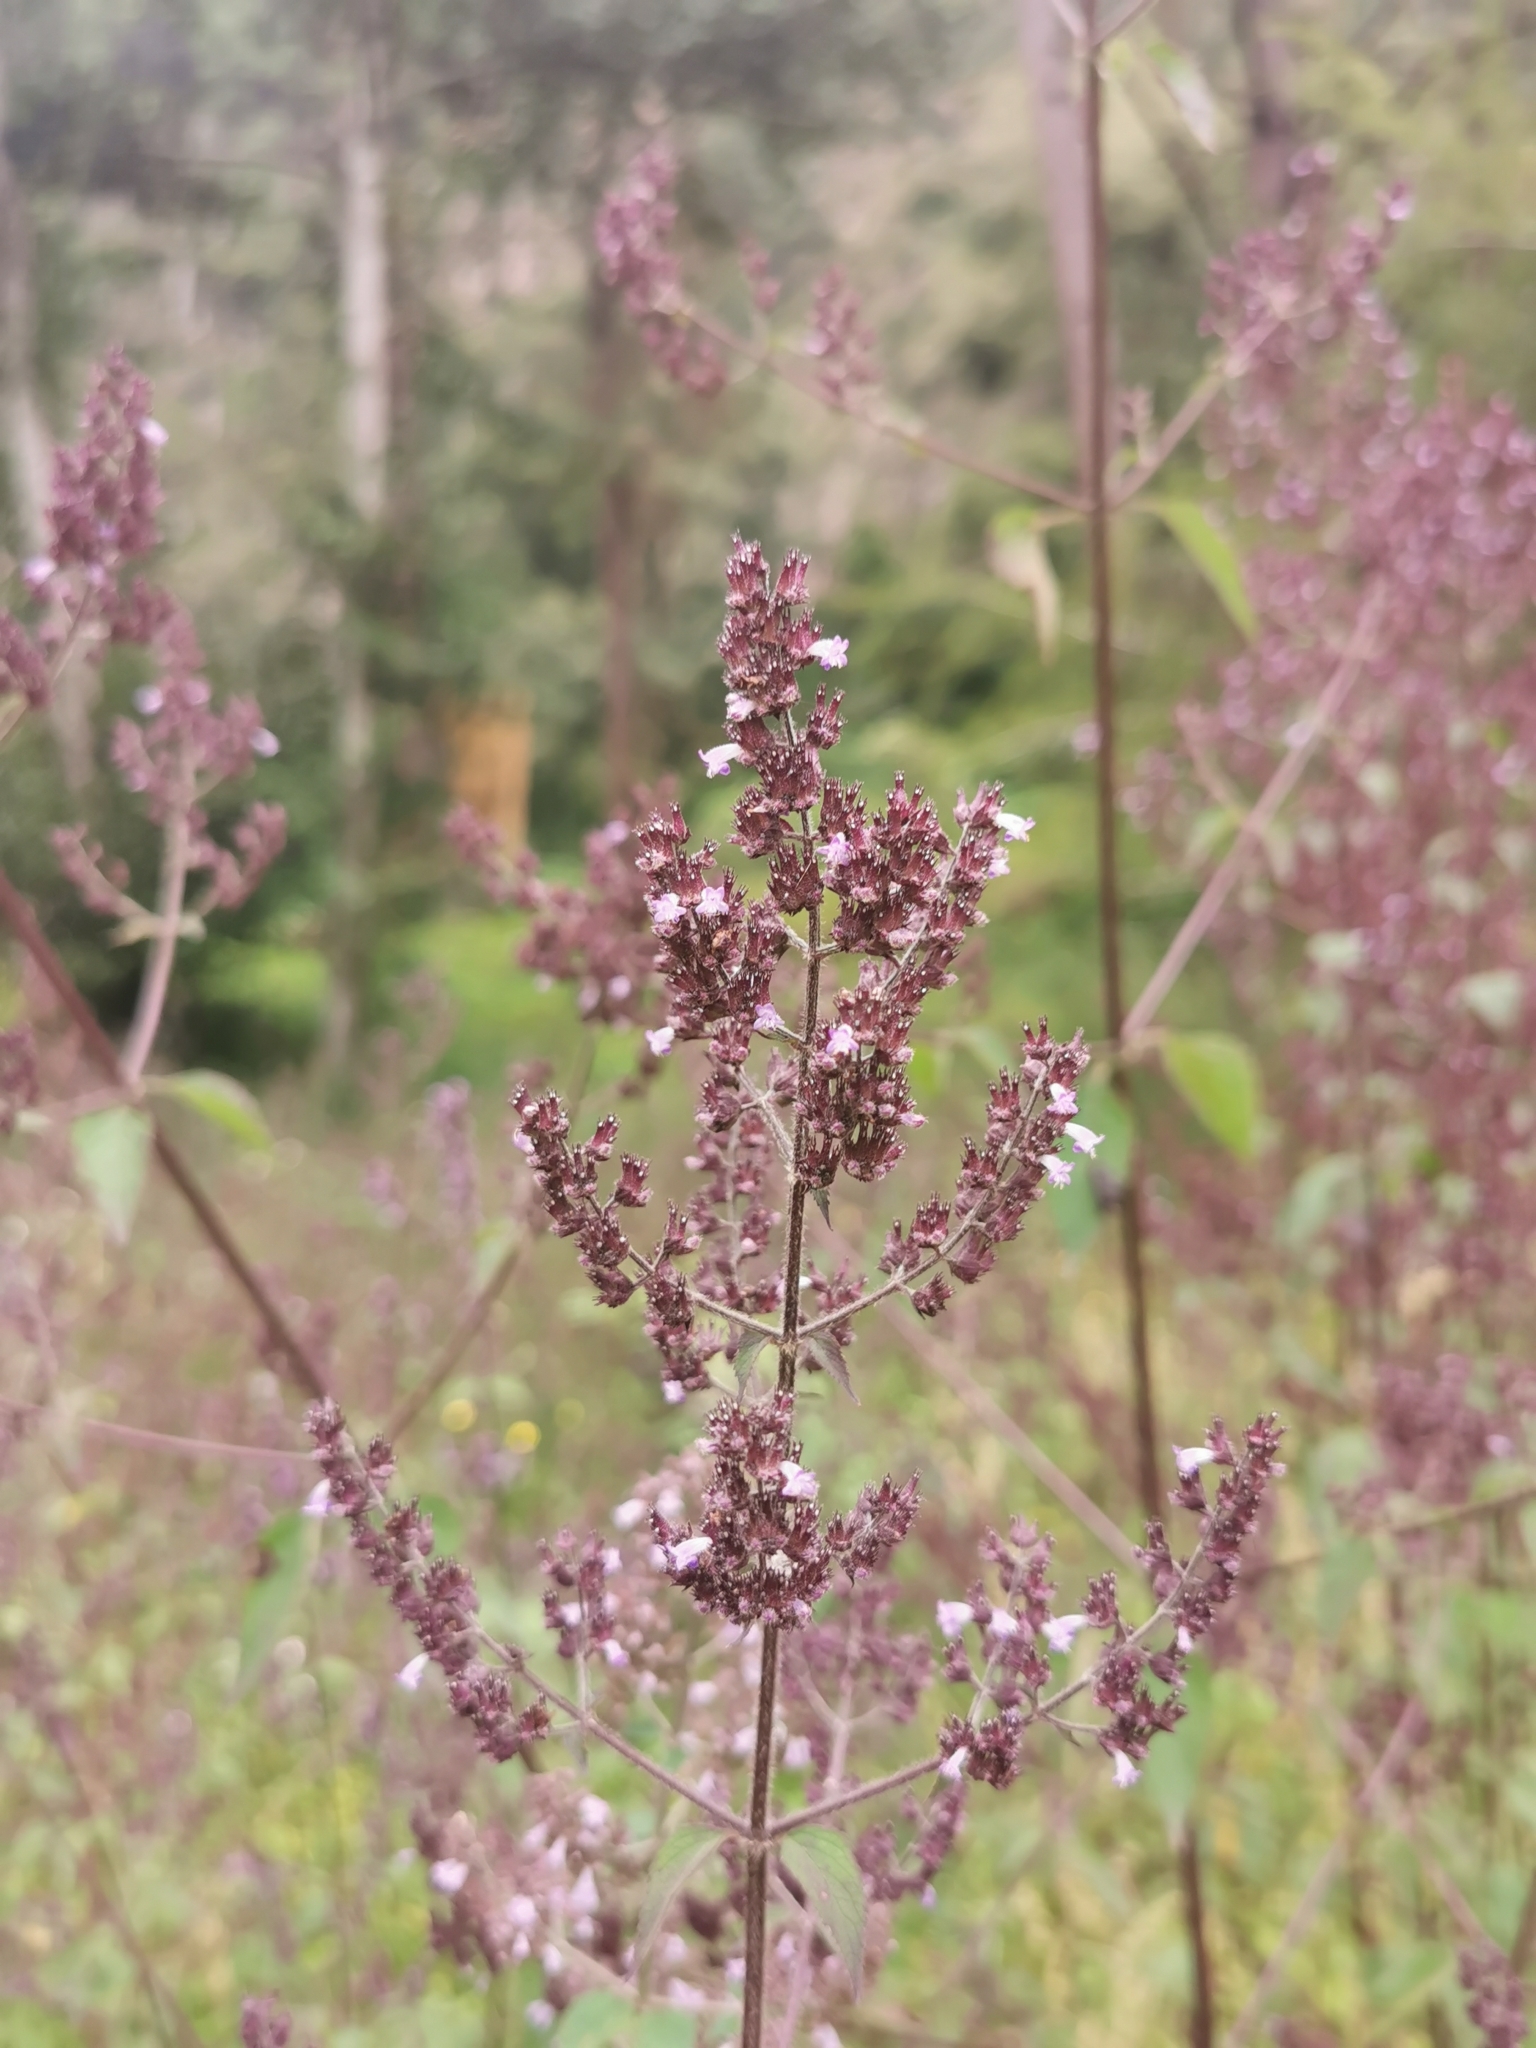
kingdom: Plantae
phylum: Tracheophyta
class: Magnoliopsida
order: Lamiales
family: Lamiaceae
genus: Cantinoa
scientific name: Cantinoa mutabilis
